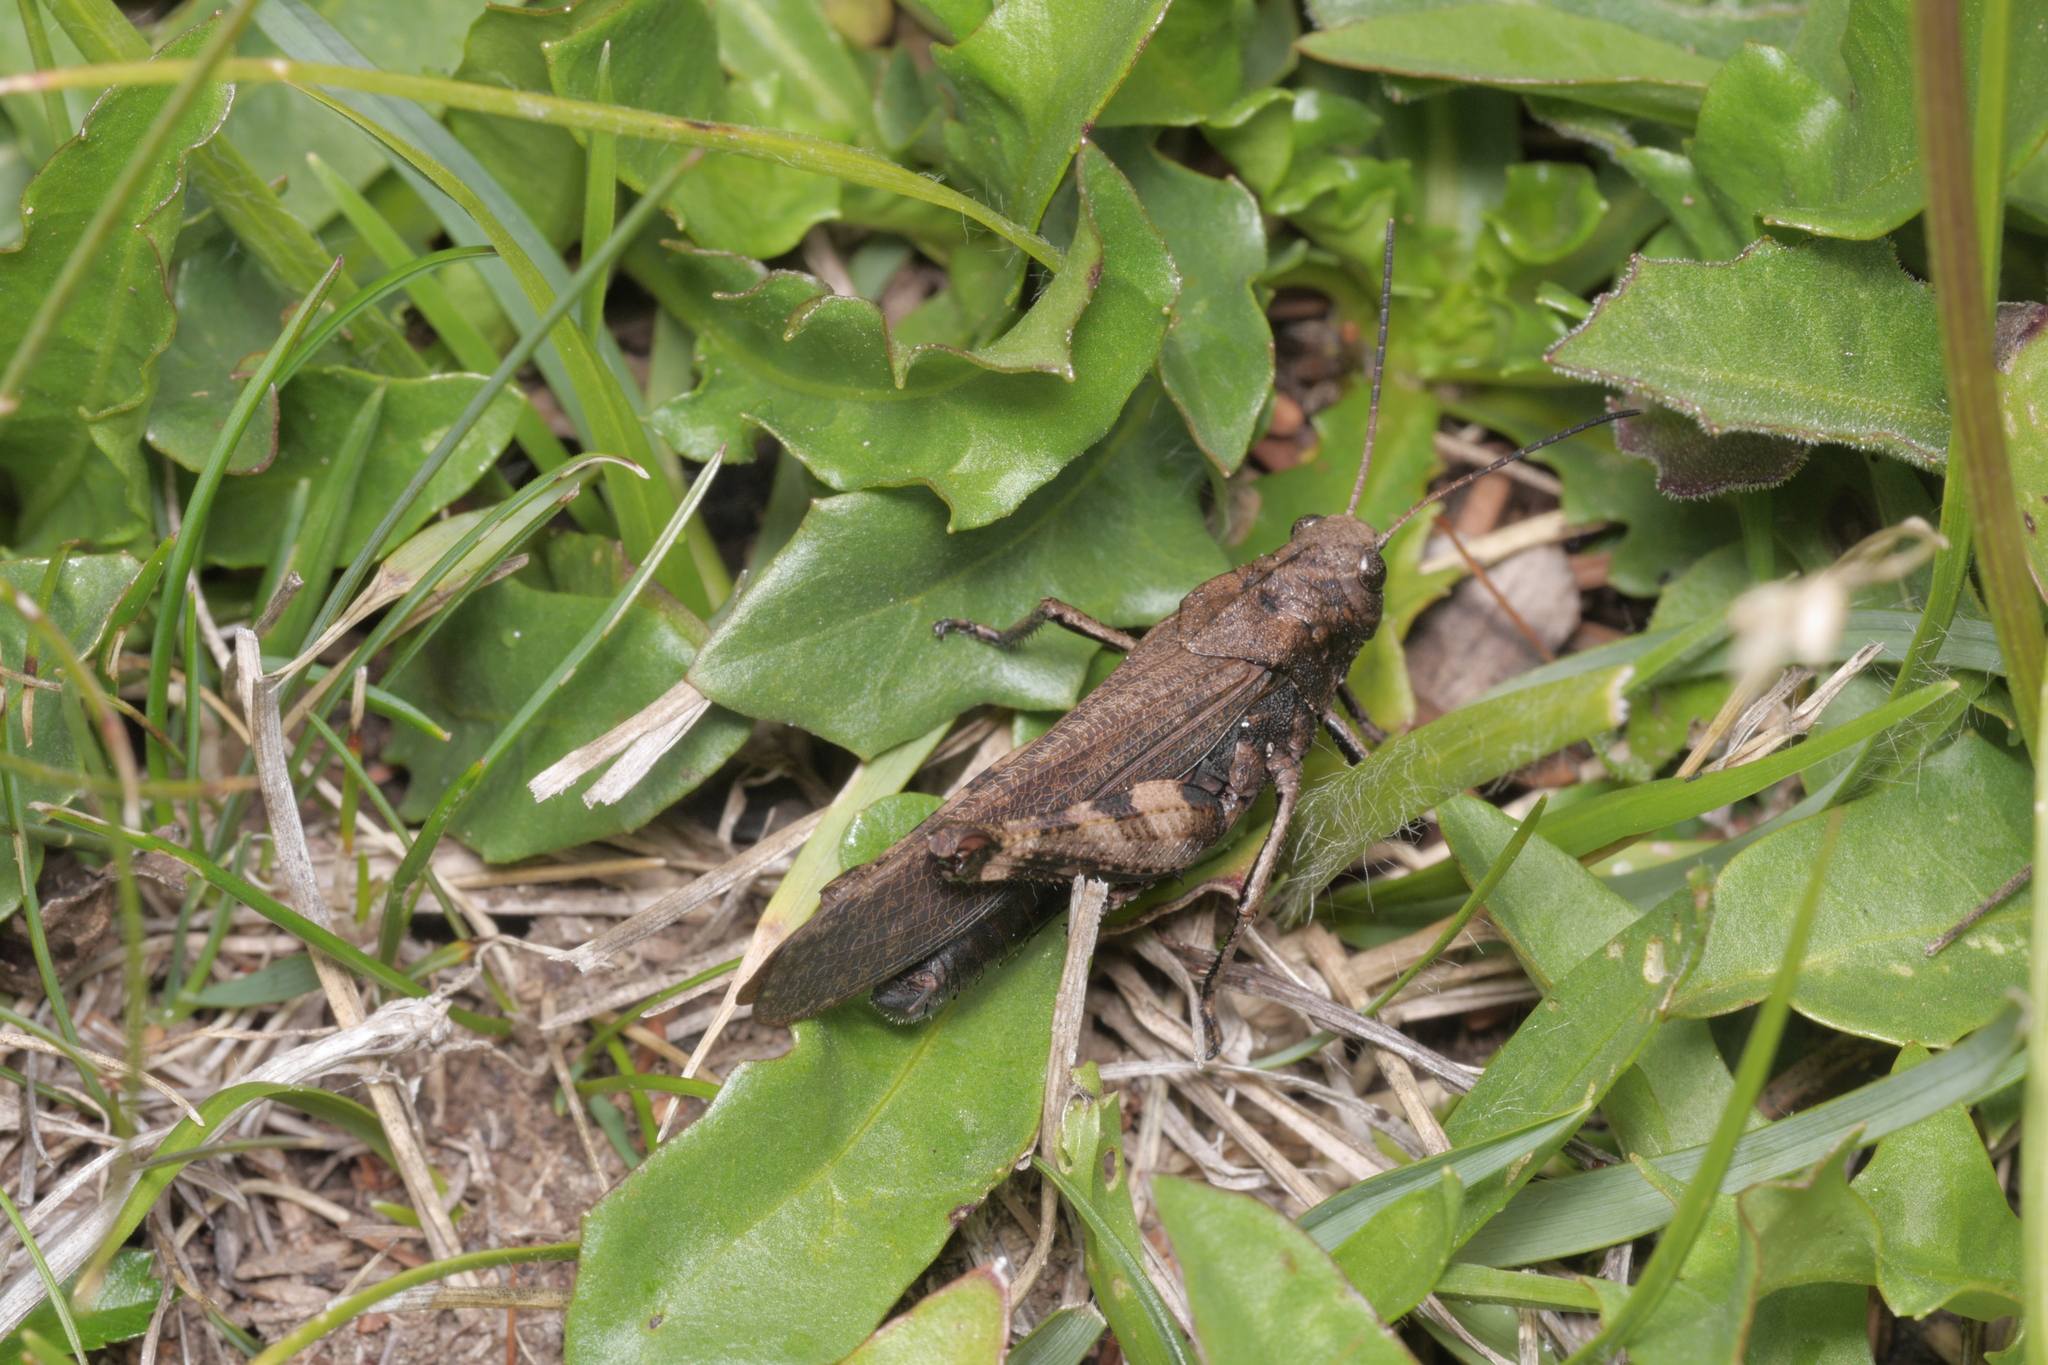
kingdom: Animalia
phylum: Arthropoda
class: Insecta
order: Orthoptera
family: Acrididae
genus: Psophus
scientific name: Psophus stridulus
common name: Rattle grasshopper
